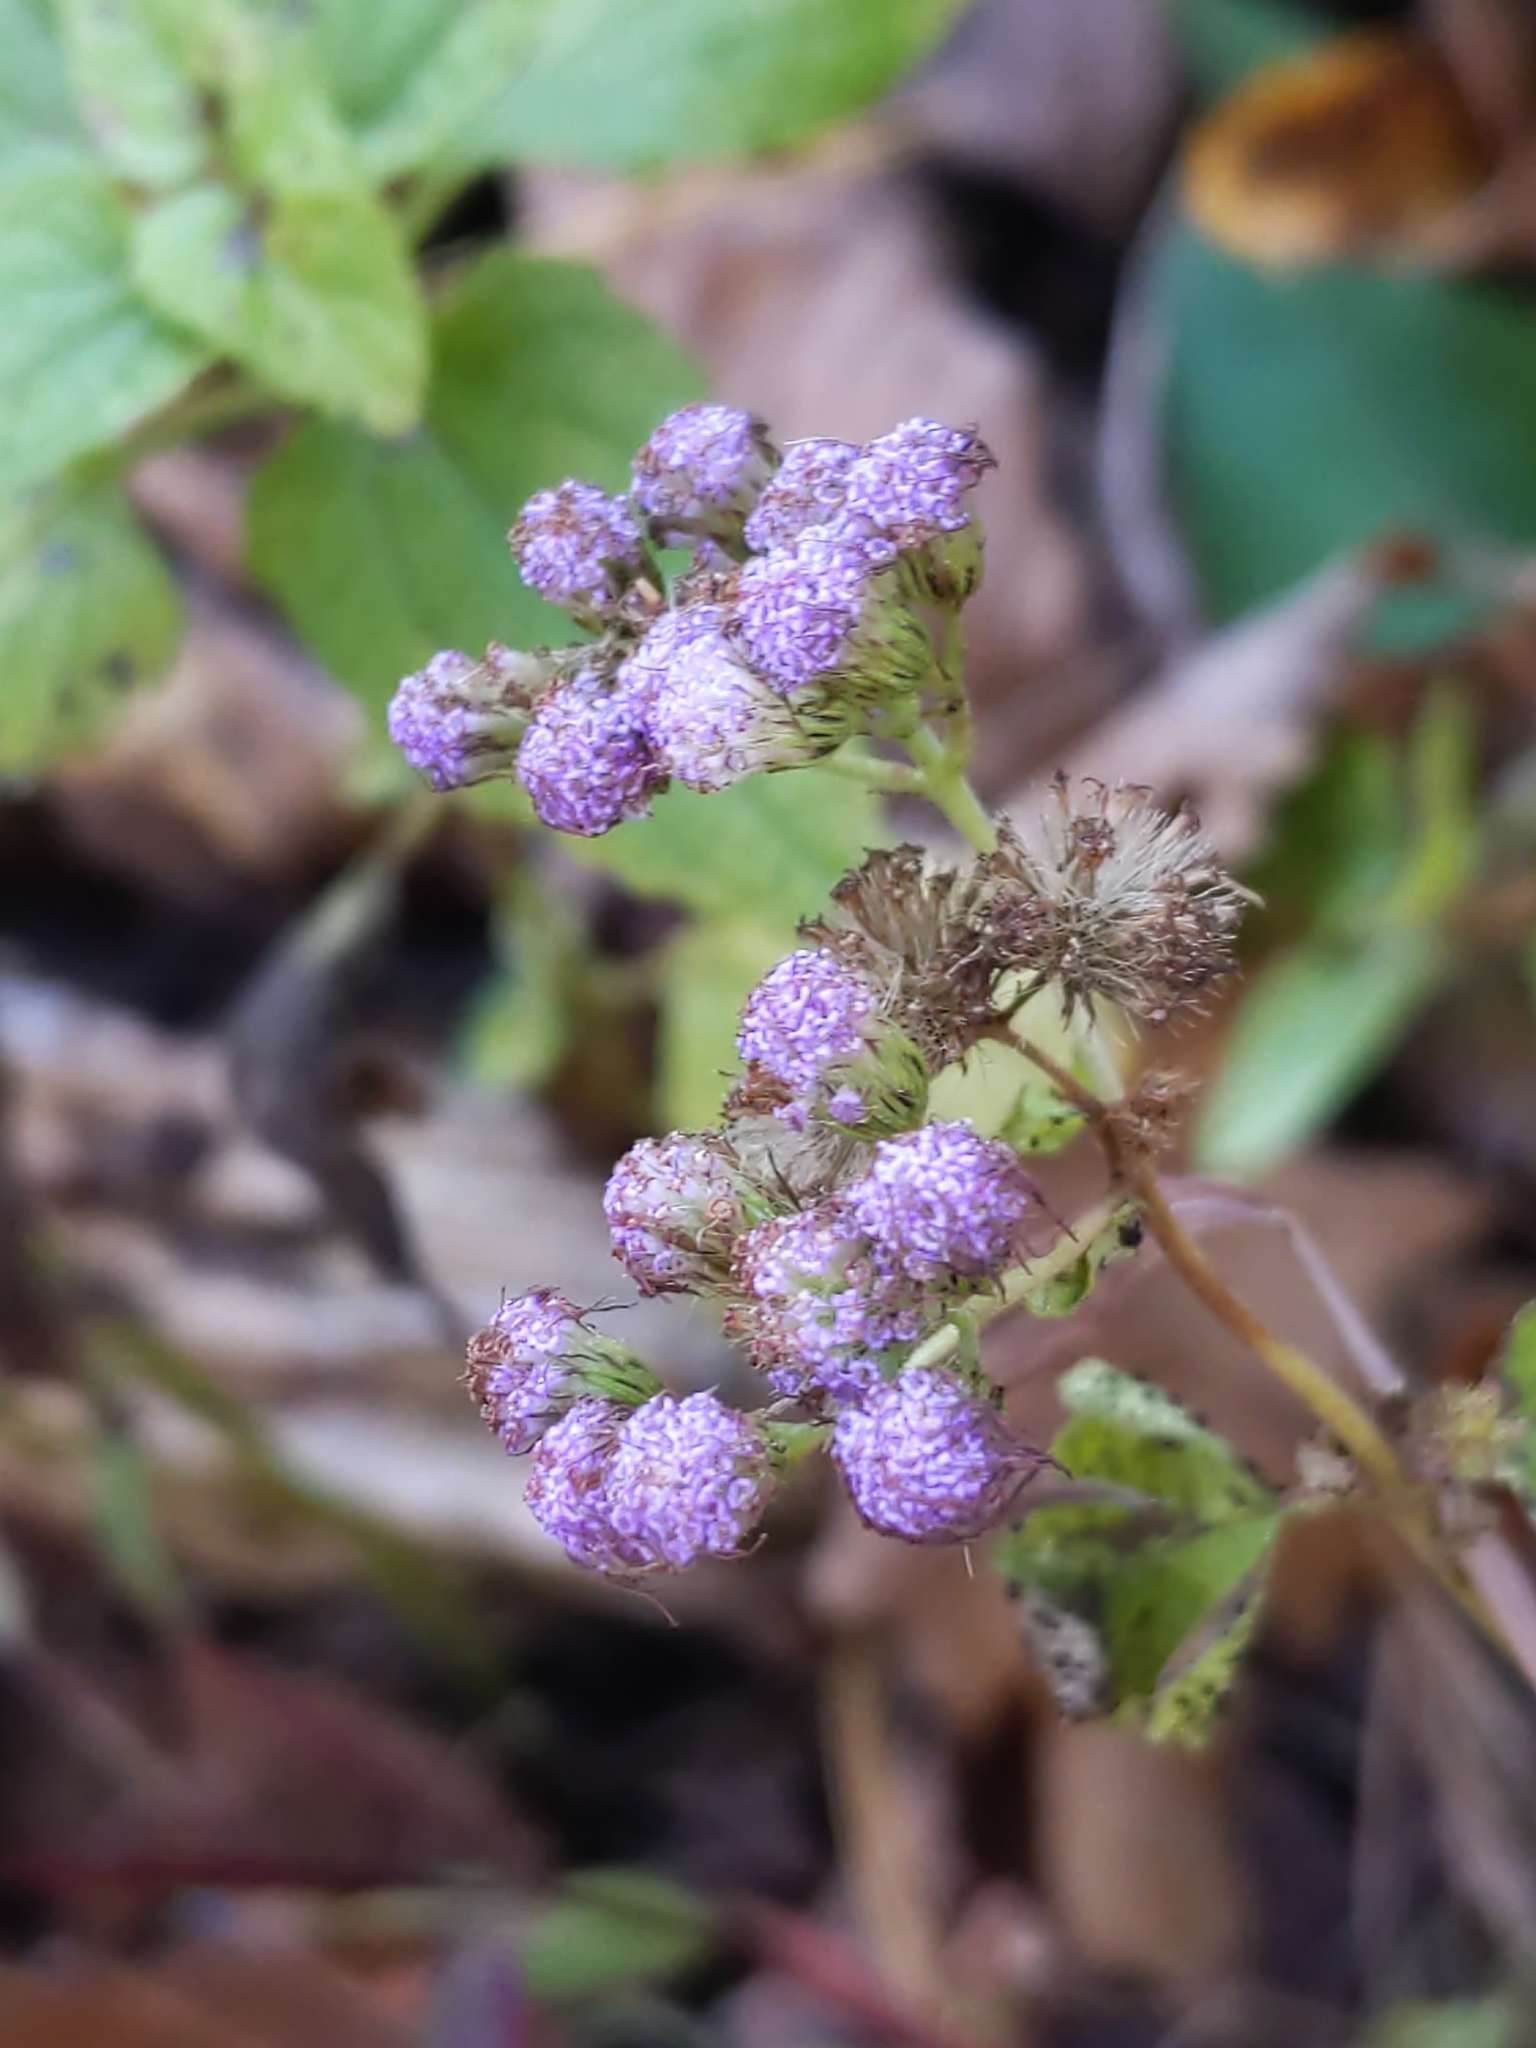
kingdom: Plantae
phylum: Tracheophyta
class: Magnoliopsida
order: Asterales
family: Asteraceae
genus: Conoclinium
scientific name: Conoclinium coelestinum
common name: Blue mistflower
